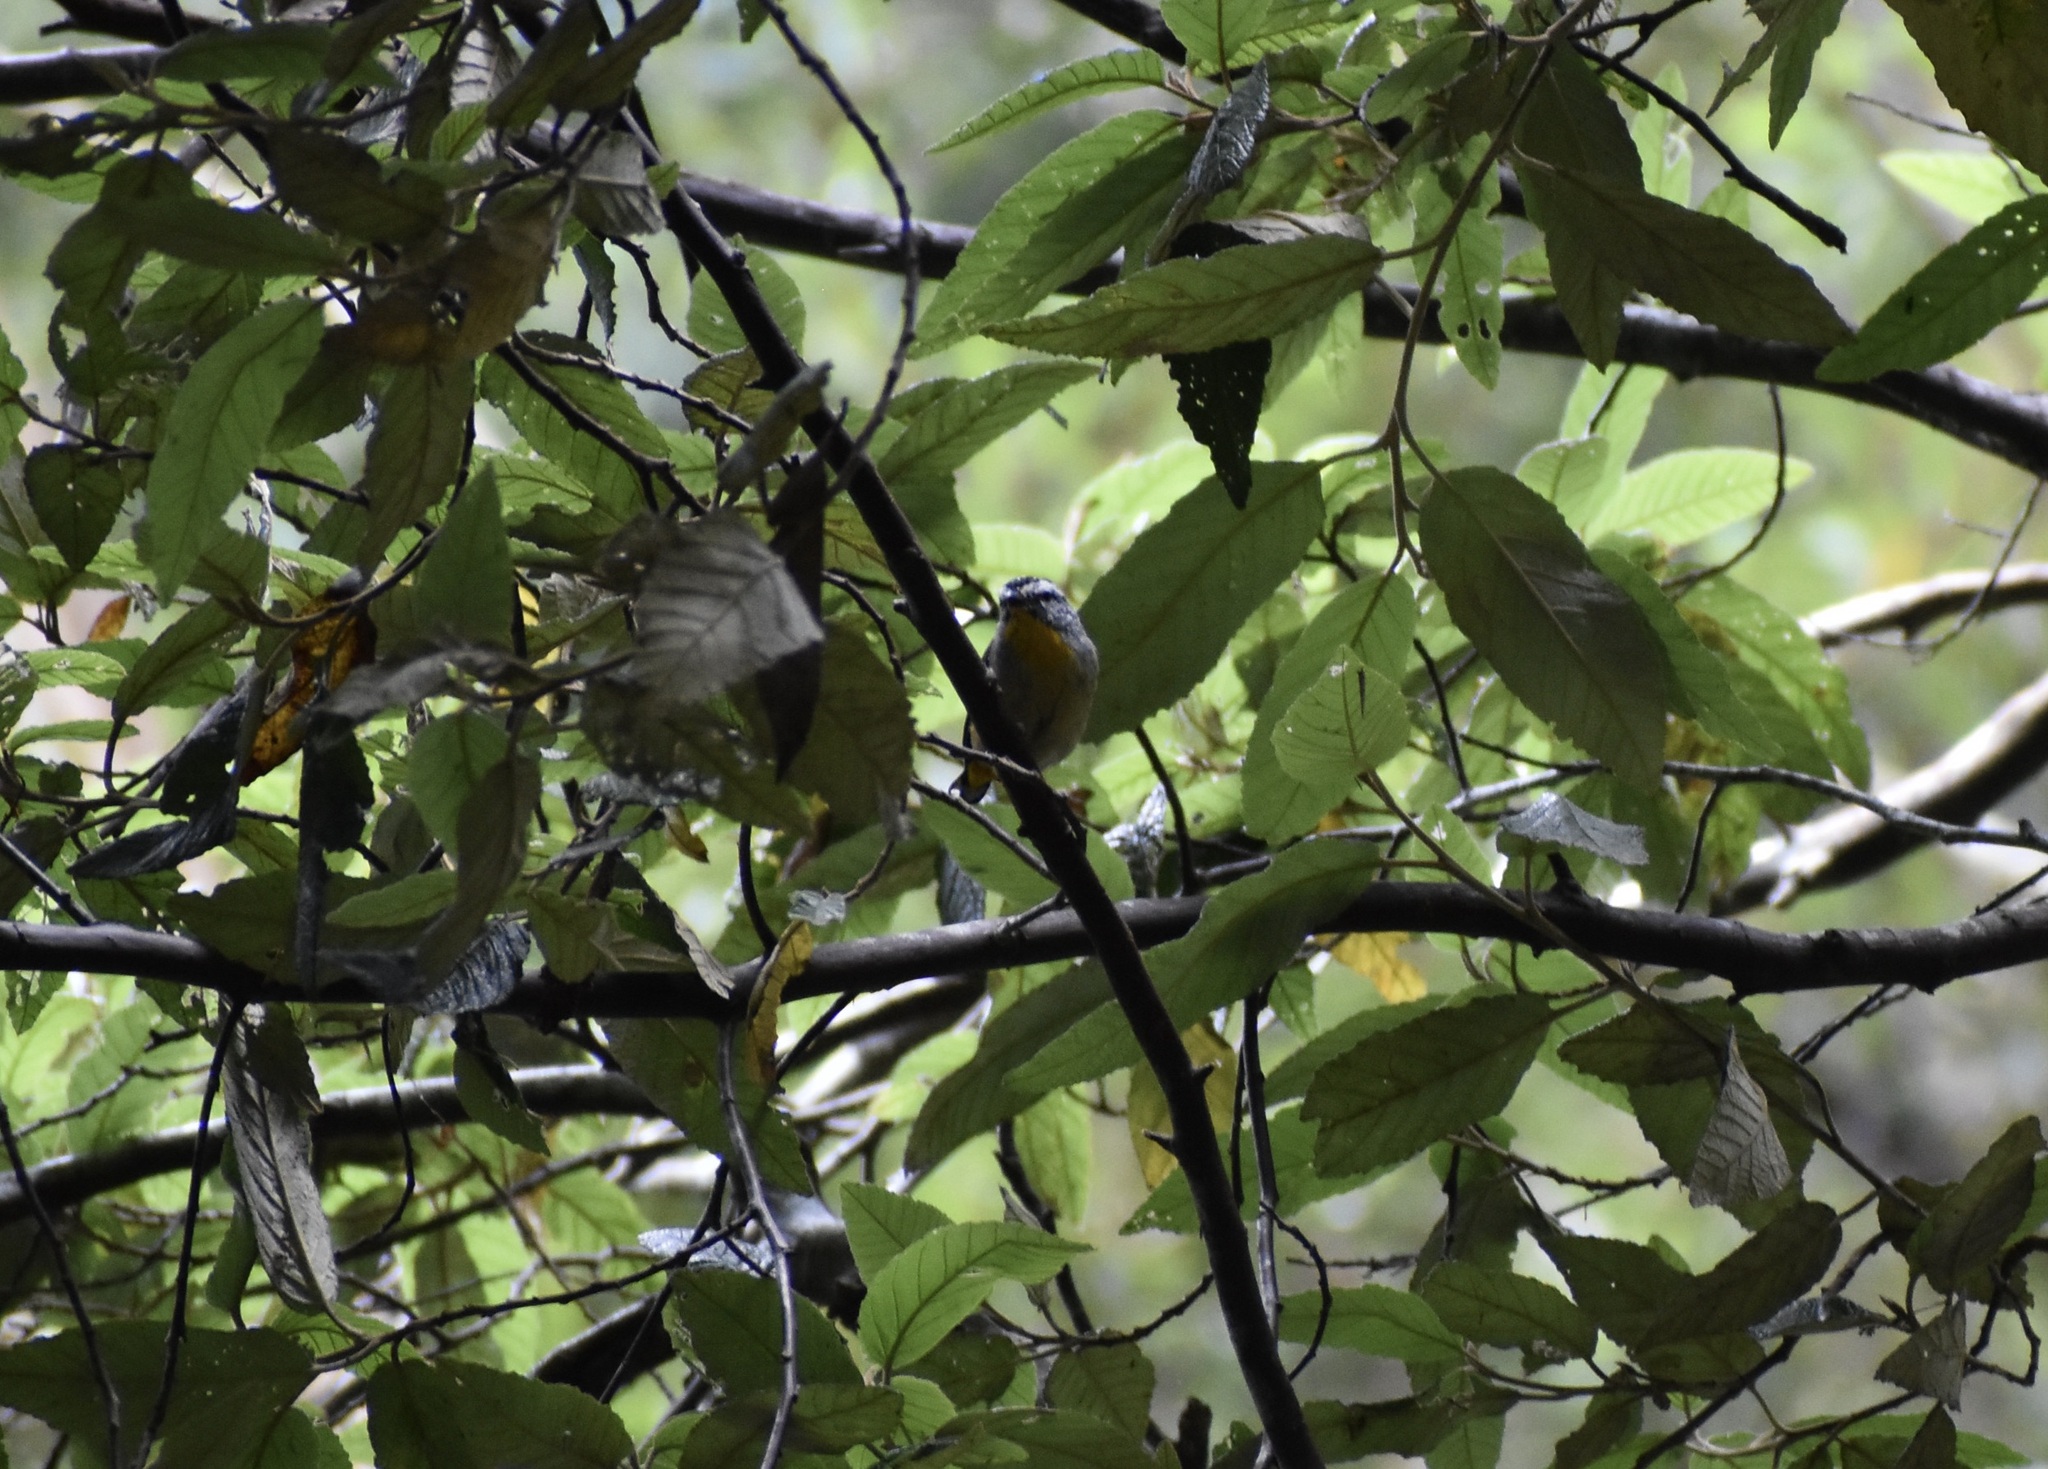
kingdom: Animalia
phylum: Chordata
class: Aves
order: Passeriformes
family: Pardalotidae
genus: Pardalotus
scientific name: Pardalotus punctatus
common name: Spotted pardalote
